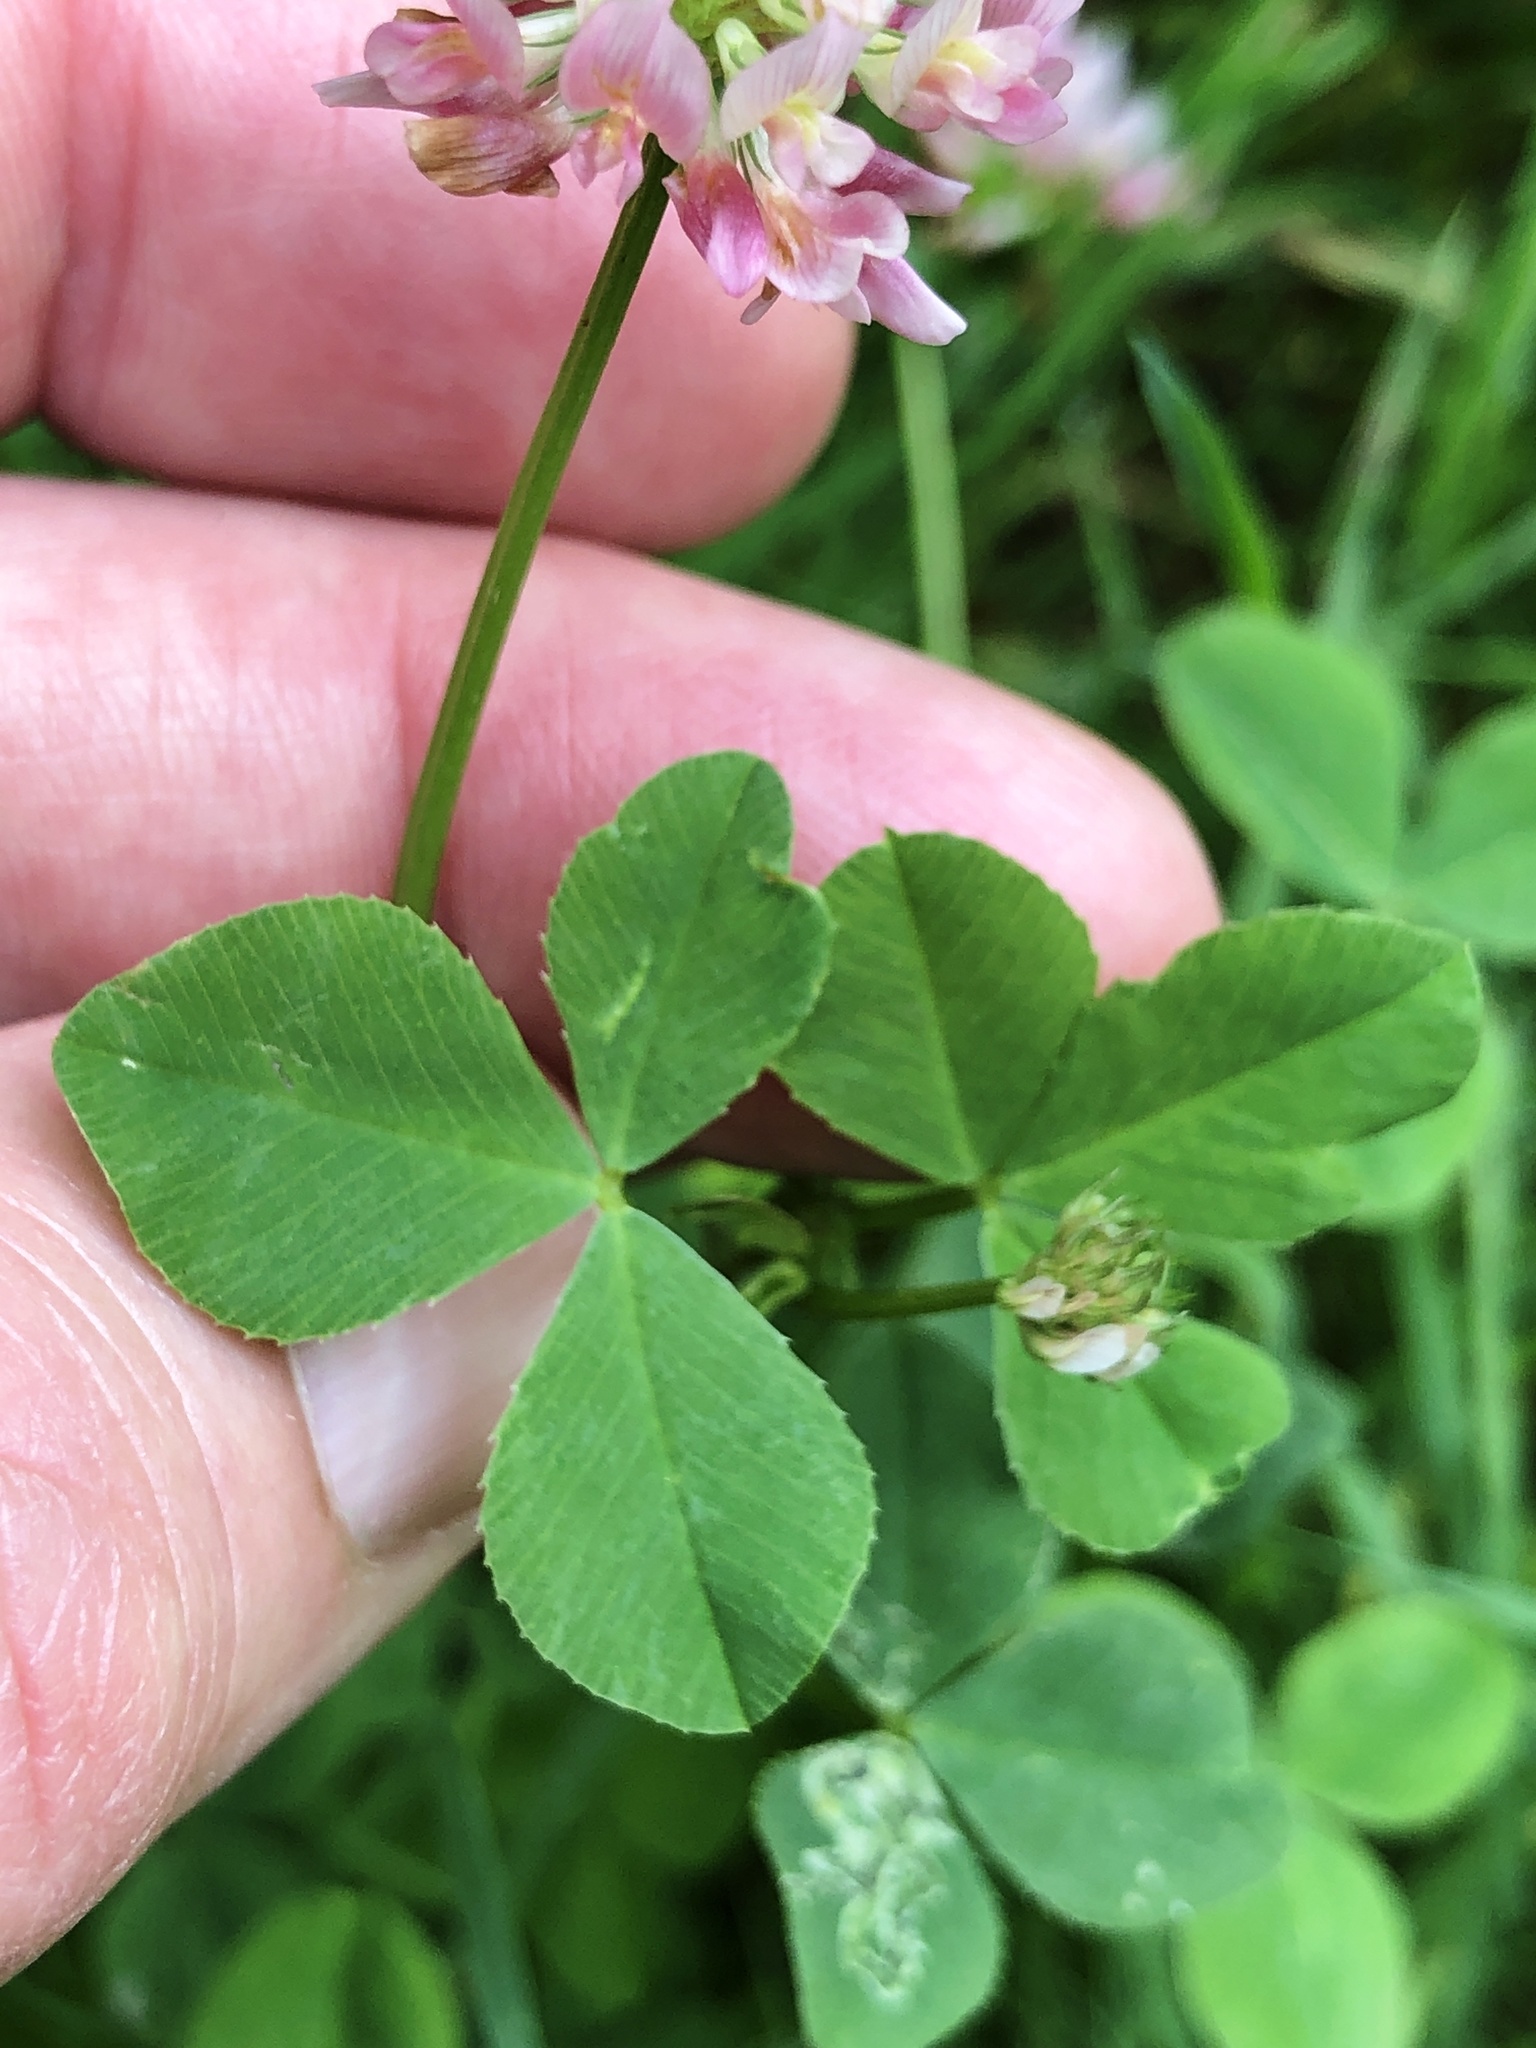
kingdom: Plantae
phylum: Tracheophyta
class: Magnoliopsida
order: Fabales
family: Fabaceae
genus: Trifolium
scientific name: Trifolium hybridum
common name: Alsike clover
